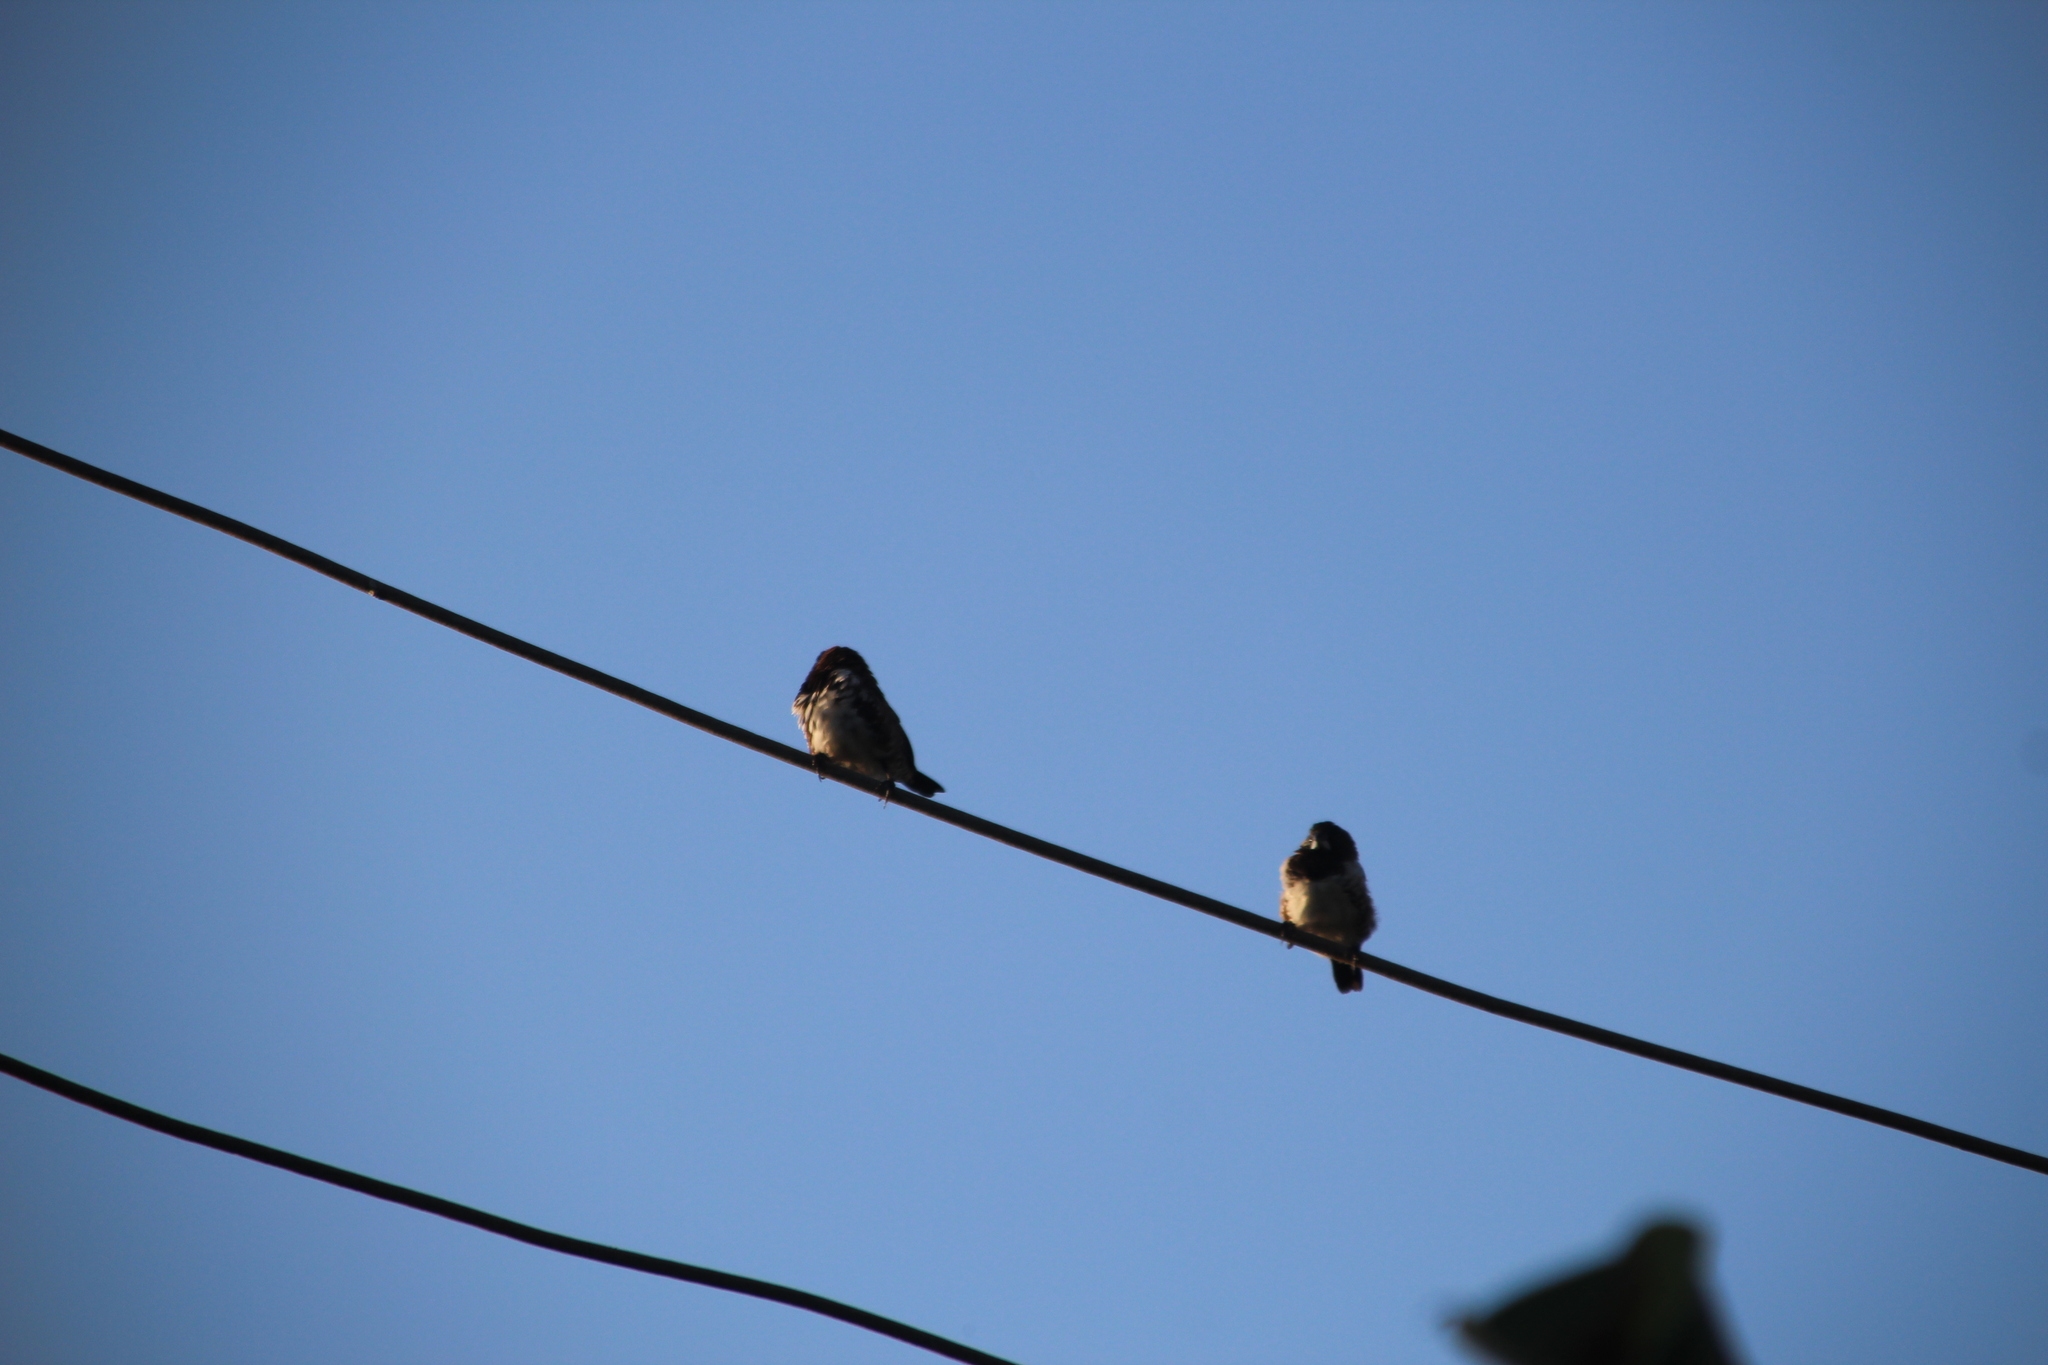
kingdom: Animalia
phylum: Chordata
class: Aves
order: Passeriformes
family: Estrildidae
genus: Lonchura
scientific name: Lonchura cucullata
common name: Bronze mannikin
